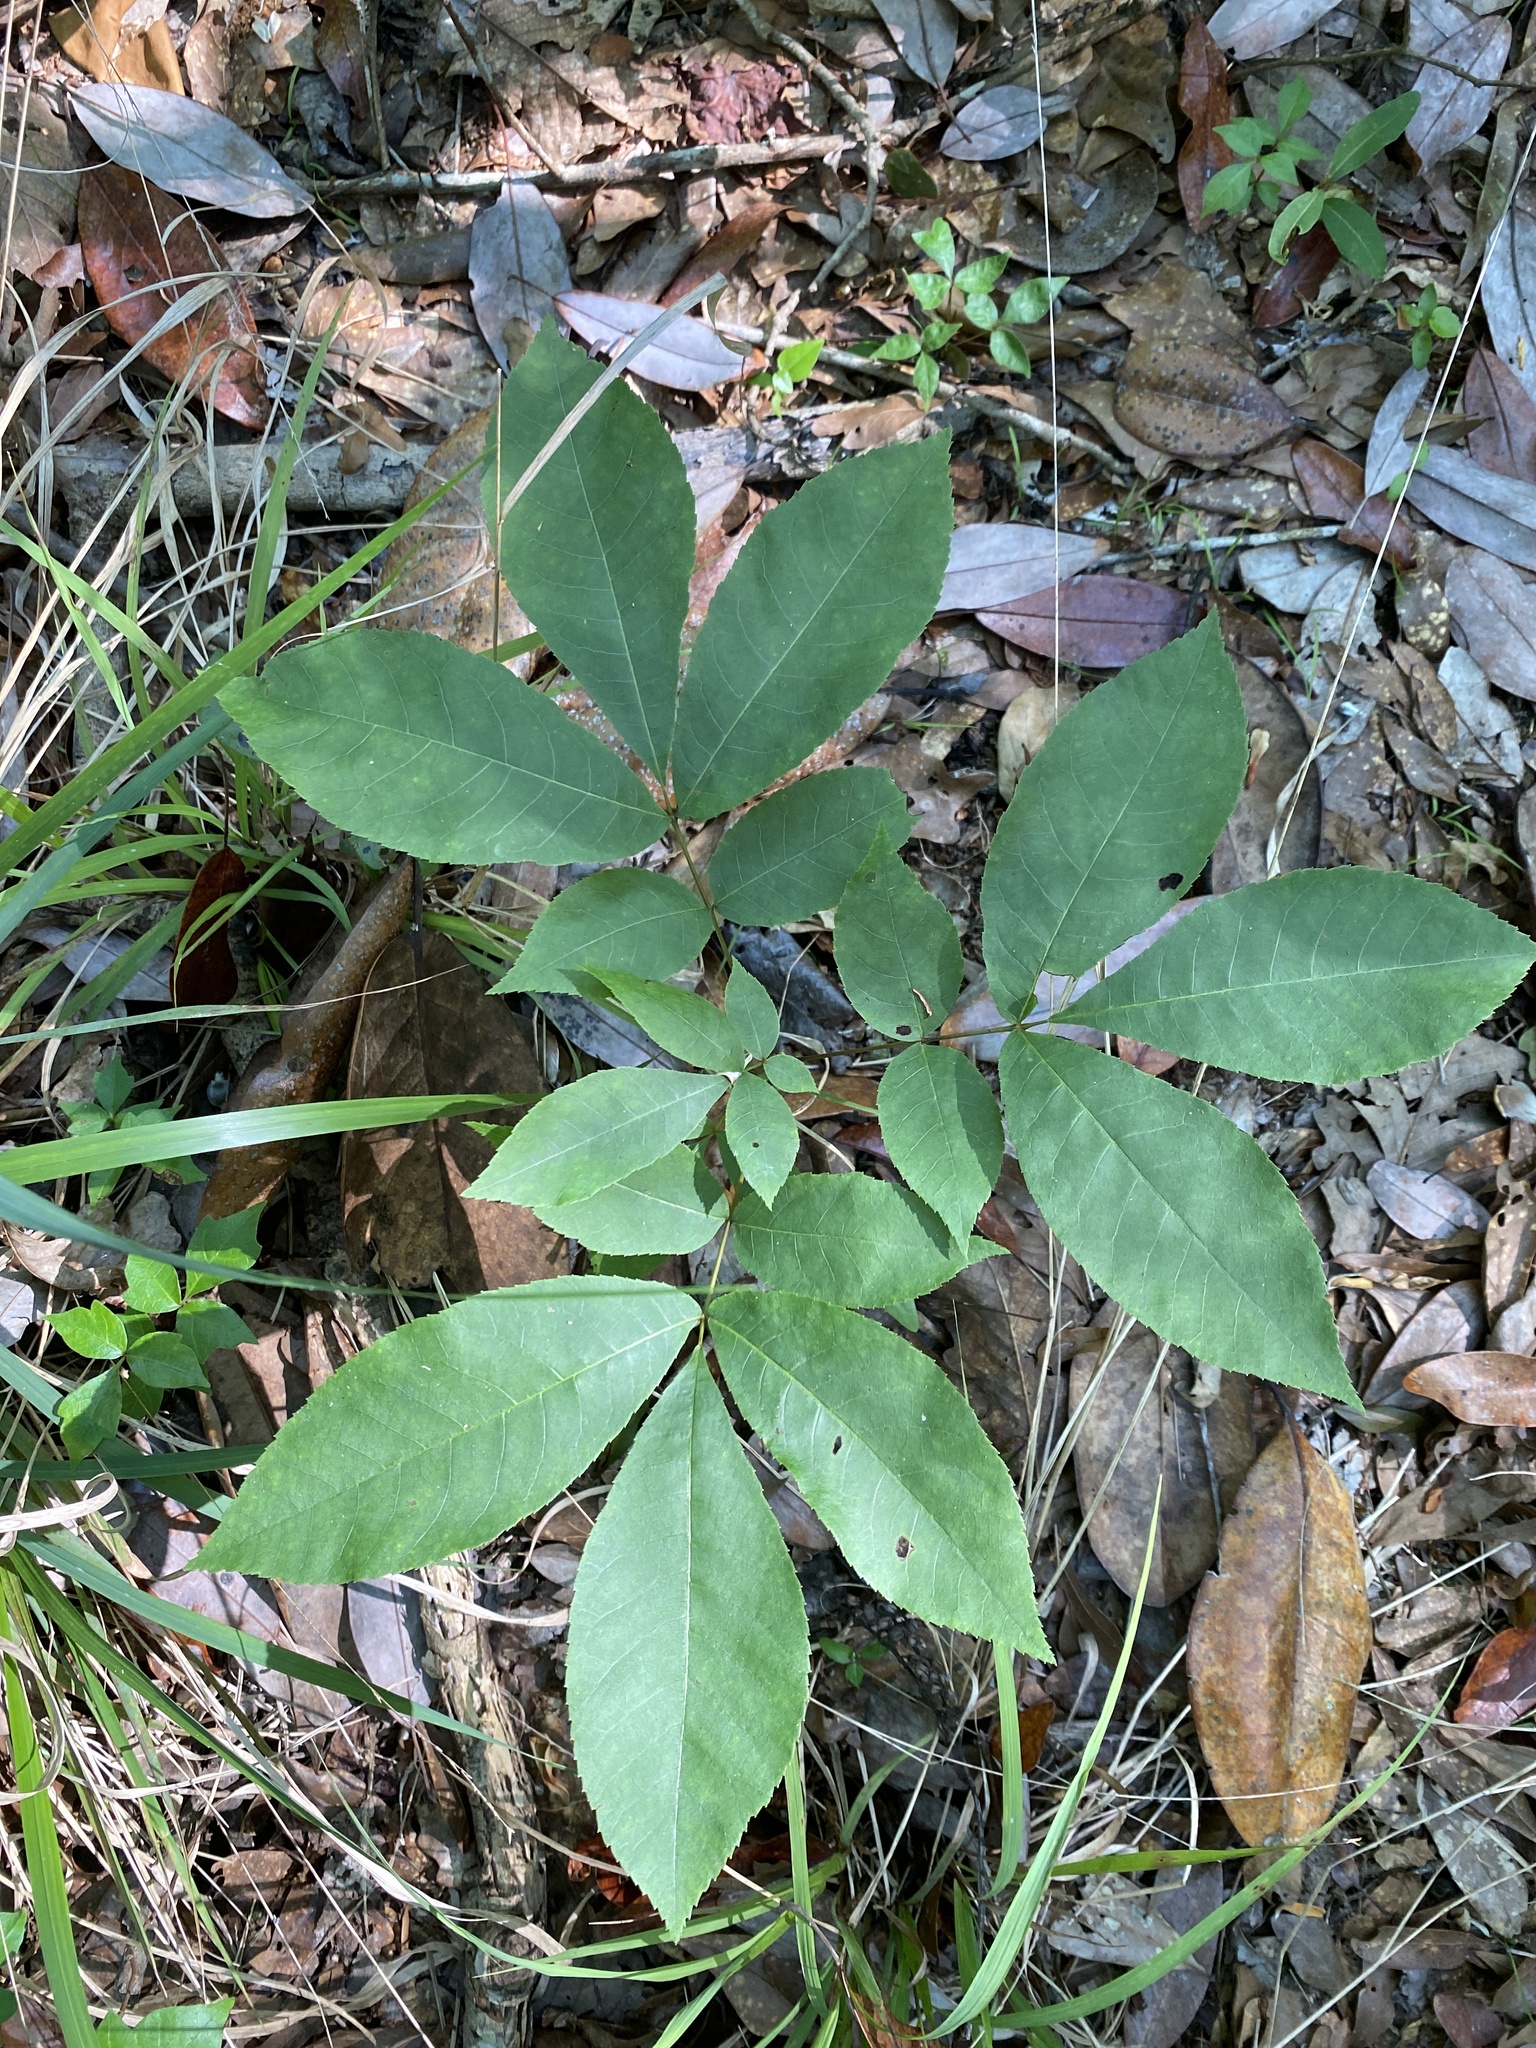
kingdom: Plantae
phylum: Tracheophyta
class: Magnoliopsida
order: Fagales
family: Juglandaceae
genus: Carya
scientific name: Carya glabra
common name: Pignut hickory
